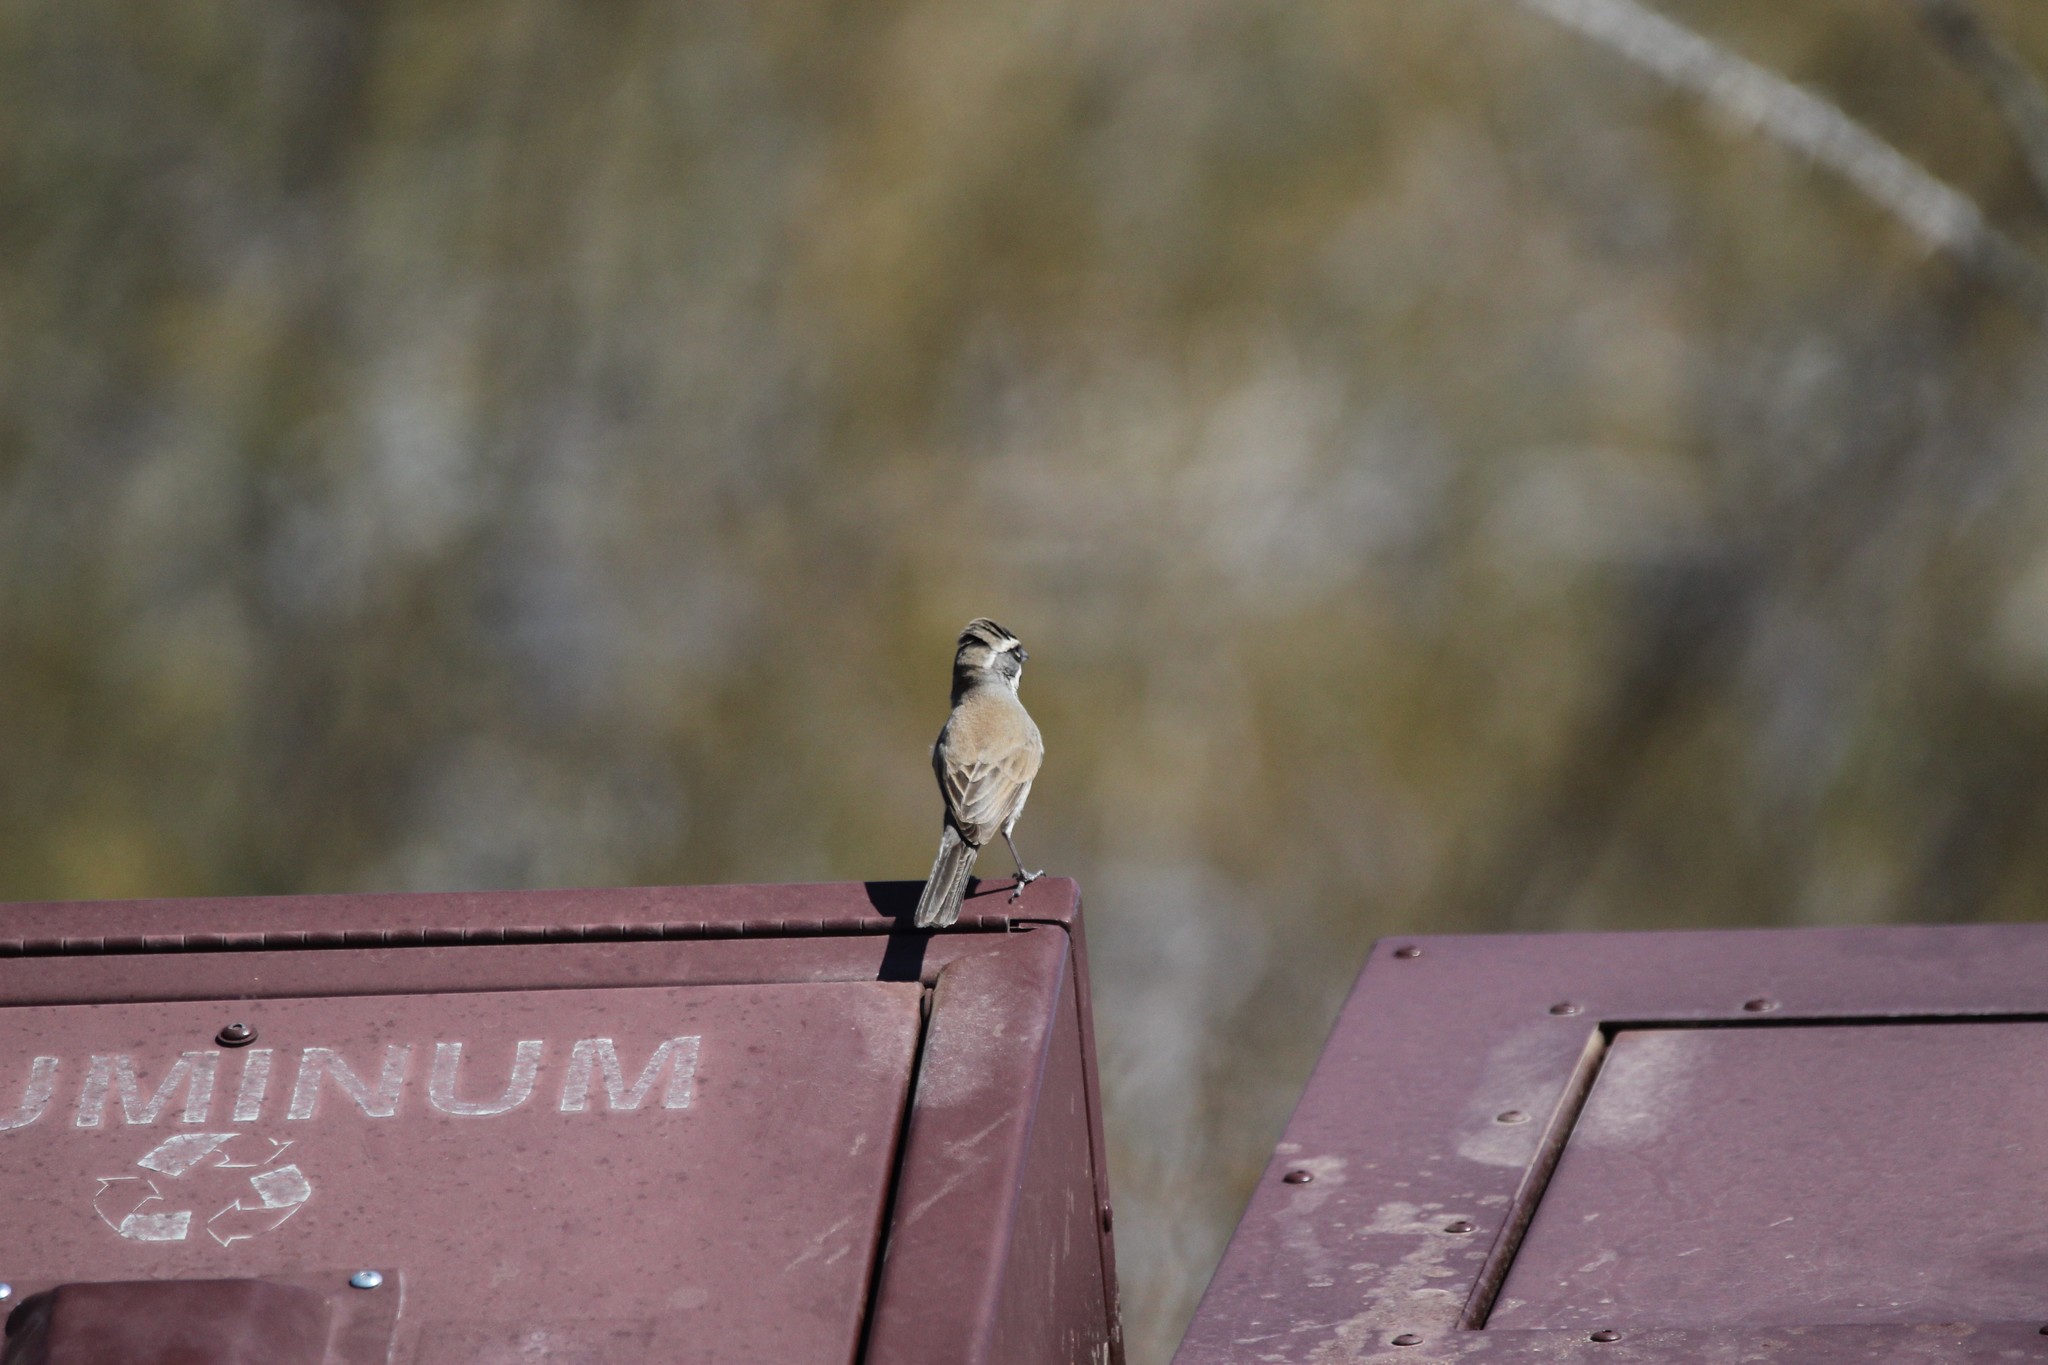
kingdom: Animalia
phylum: Chordata
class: Aves
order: Passeriformes
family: Passerellidae
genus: Amphispiza
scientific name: Amphispiza bilineata
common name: Black-throated sparrow
